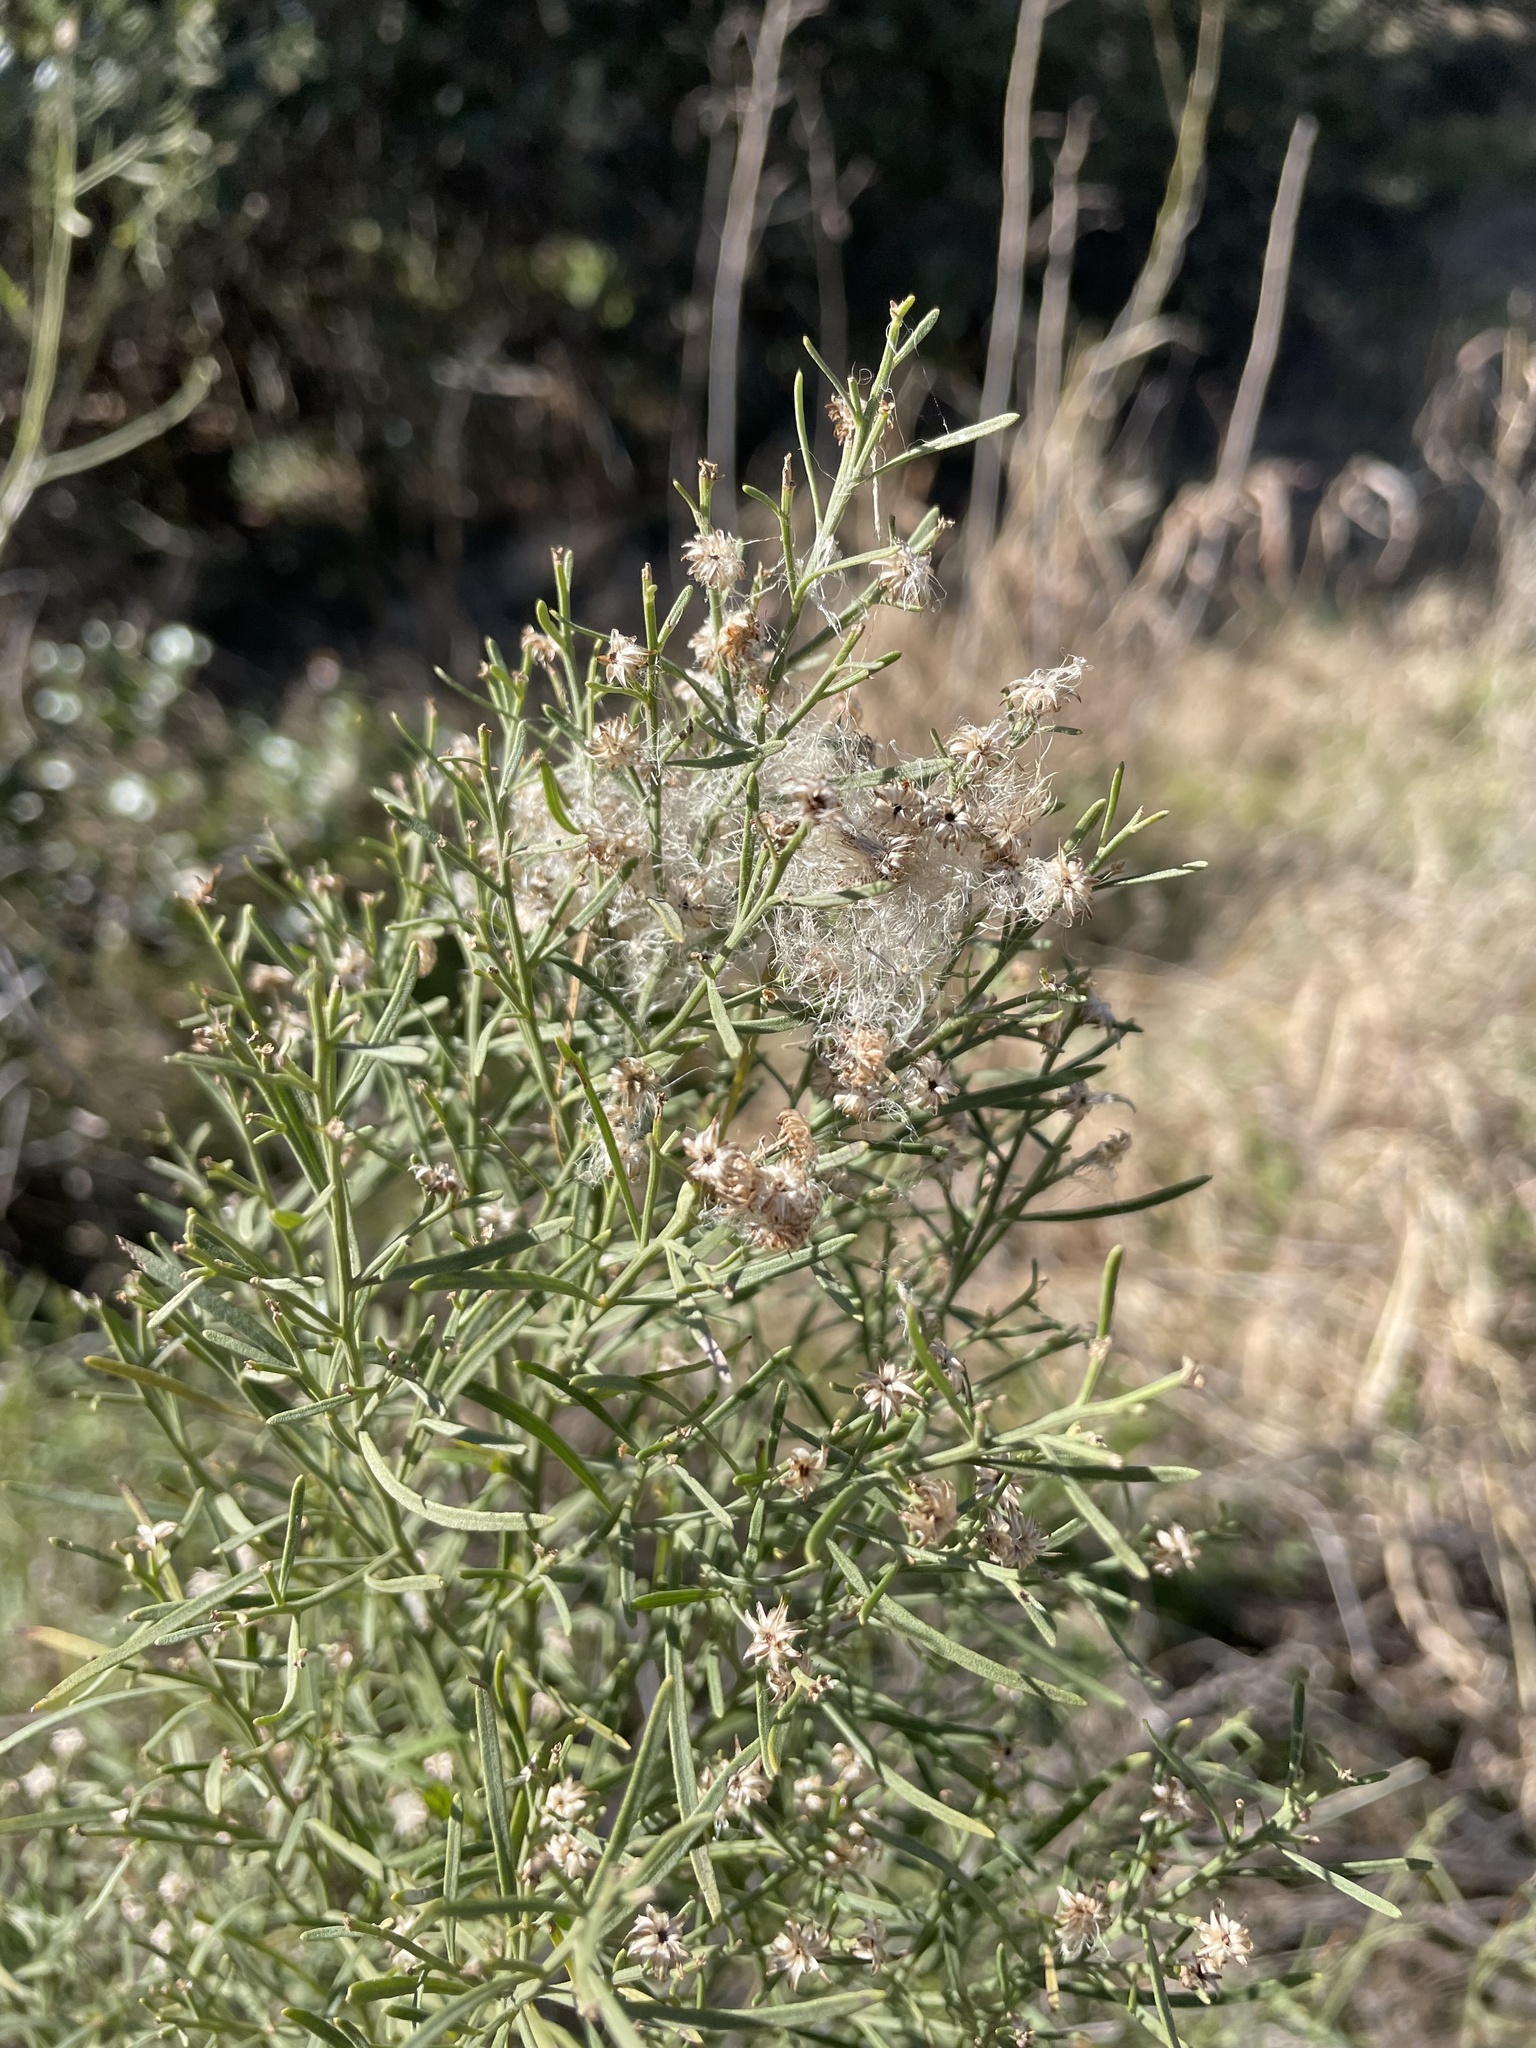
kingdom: Plantae
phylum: Tracheophyta
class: Magnoliopsida
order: Asterales
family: Asteraceae
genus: Baccharis
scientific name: Baccharis neglecta
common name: Roosevelt-weed
